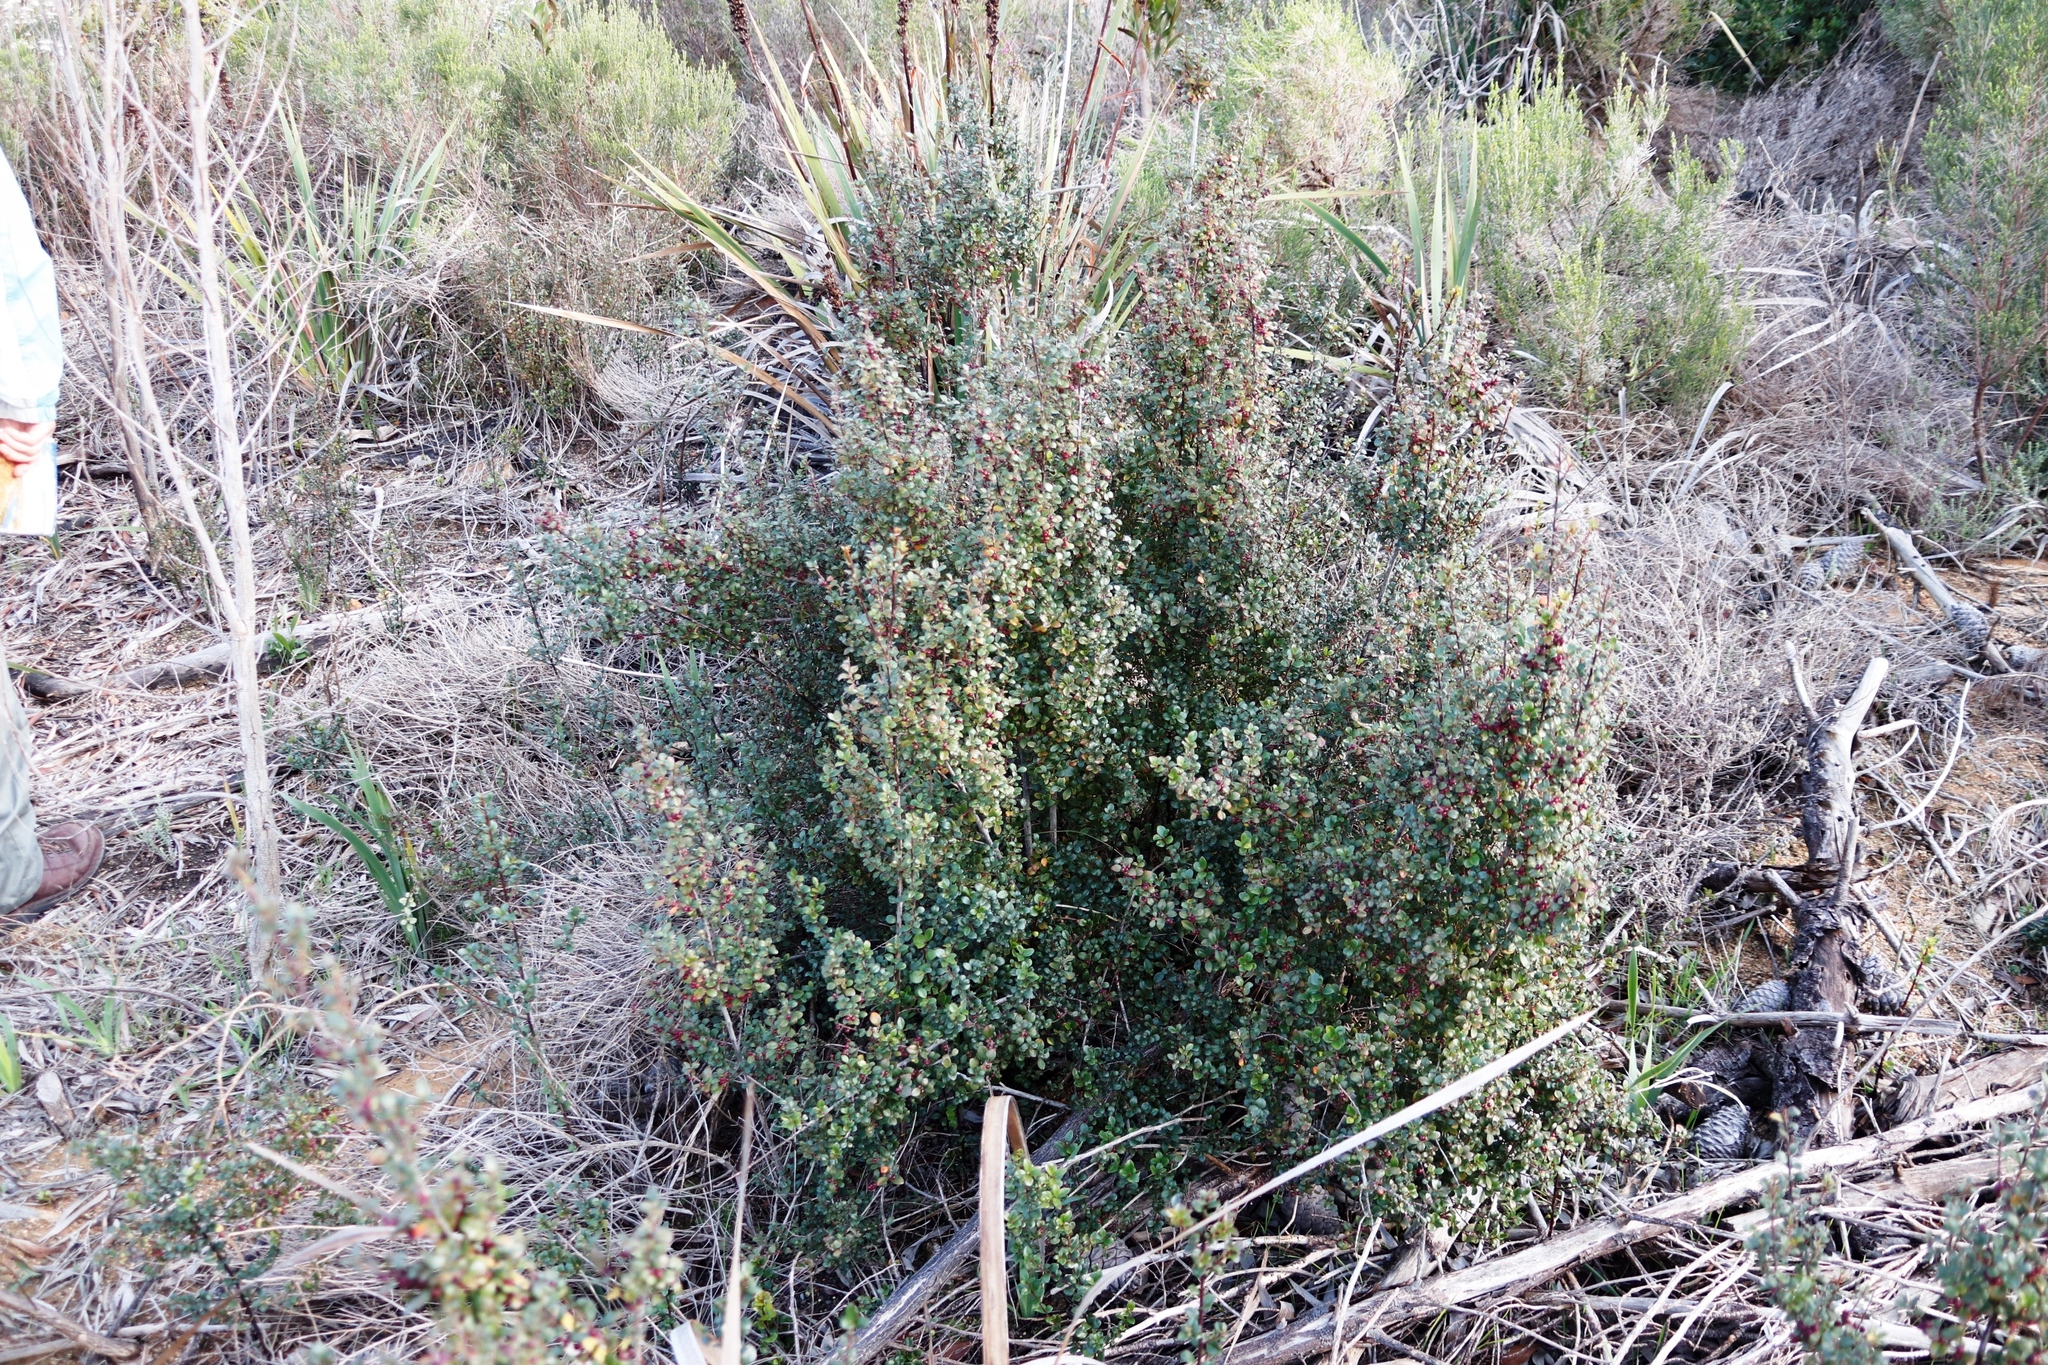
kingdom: Plantae
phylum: Tracheophyta
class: Magnoliopsida
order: Ericales
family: Primulaceae
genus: Myrsine
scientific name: Myrsine africana
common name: African-boxwood
